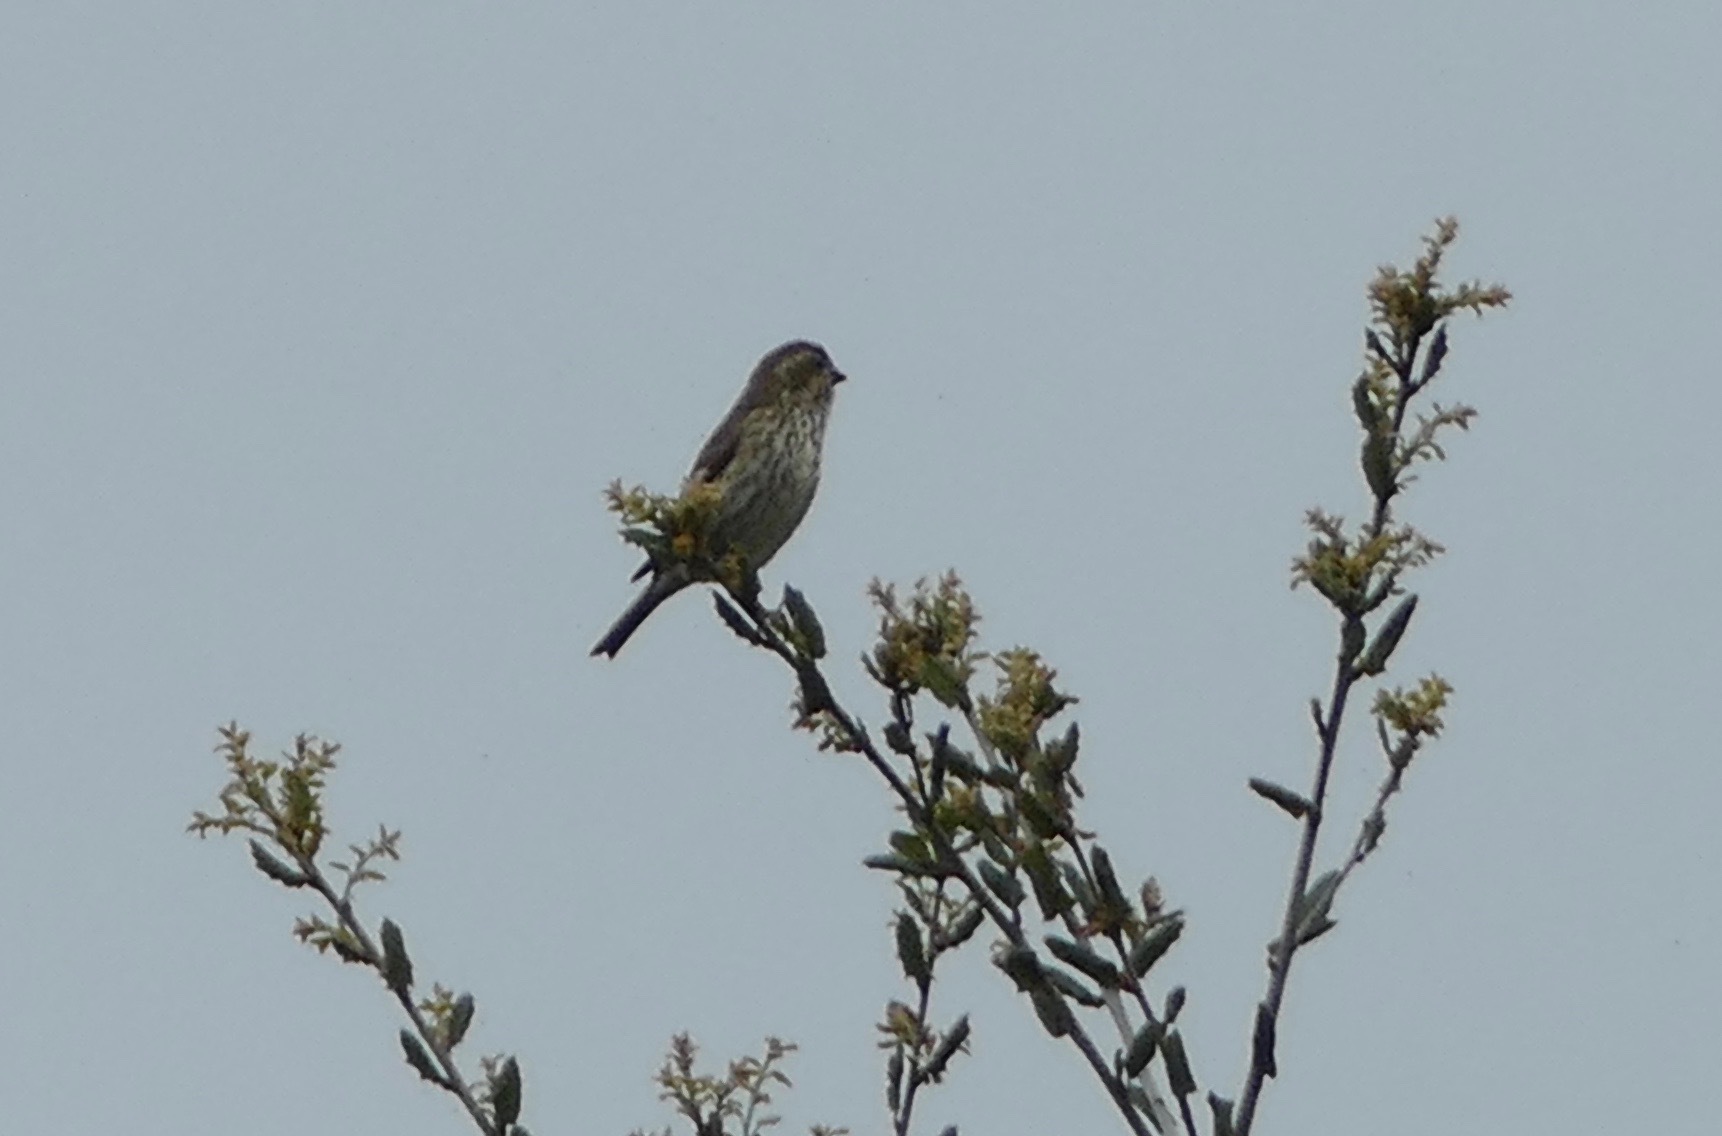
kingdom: Animalia
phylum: Chordata
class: Aves
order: Passeriformes
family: Fringillidae
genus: Haemorhous
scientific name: Haemorhous purpureus
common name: Purple finch
